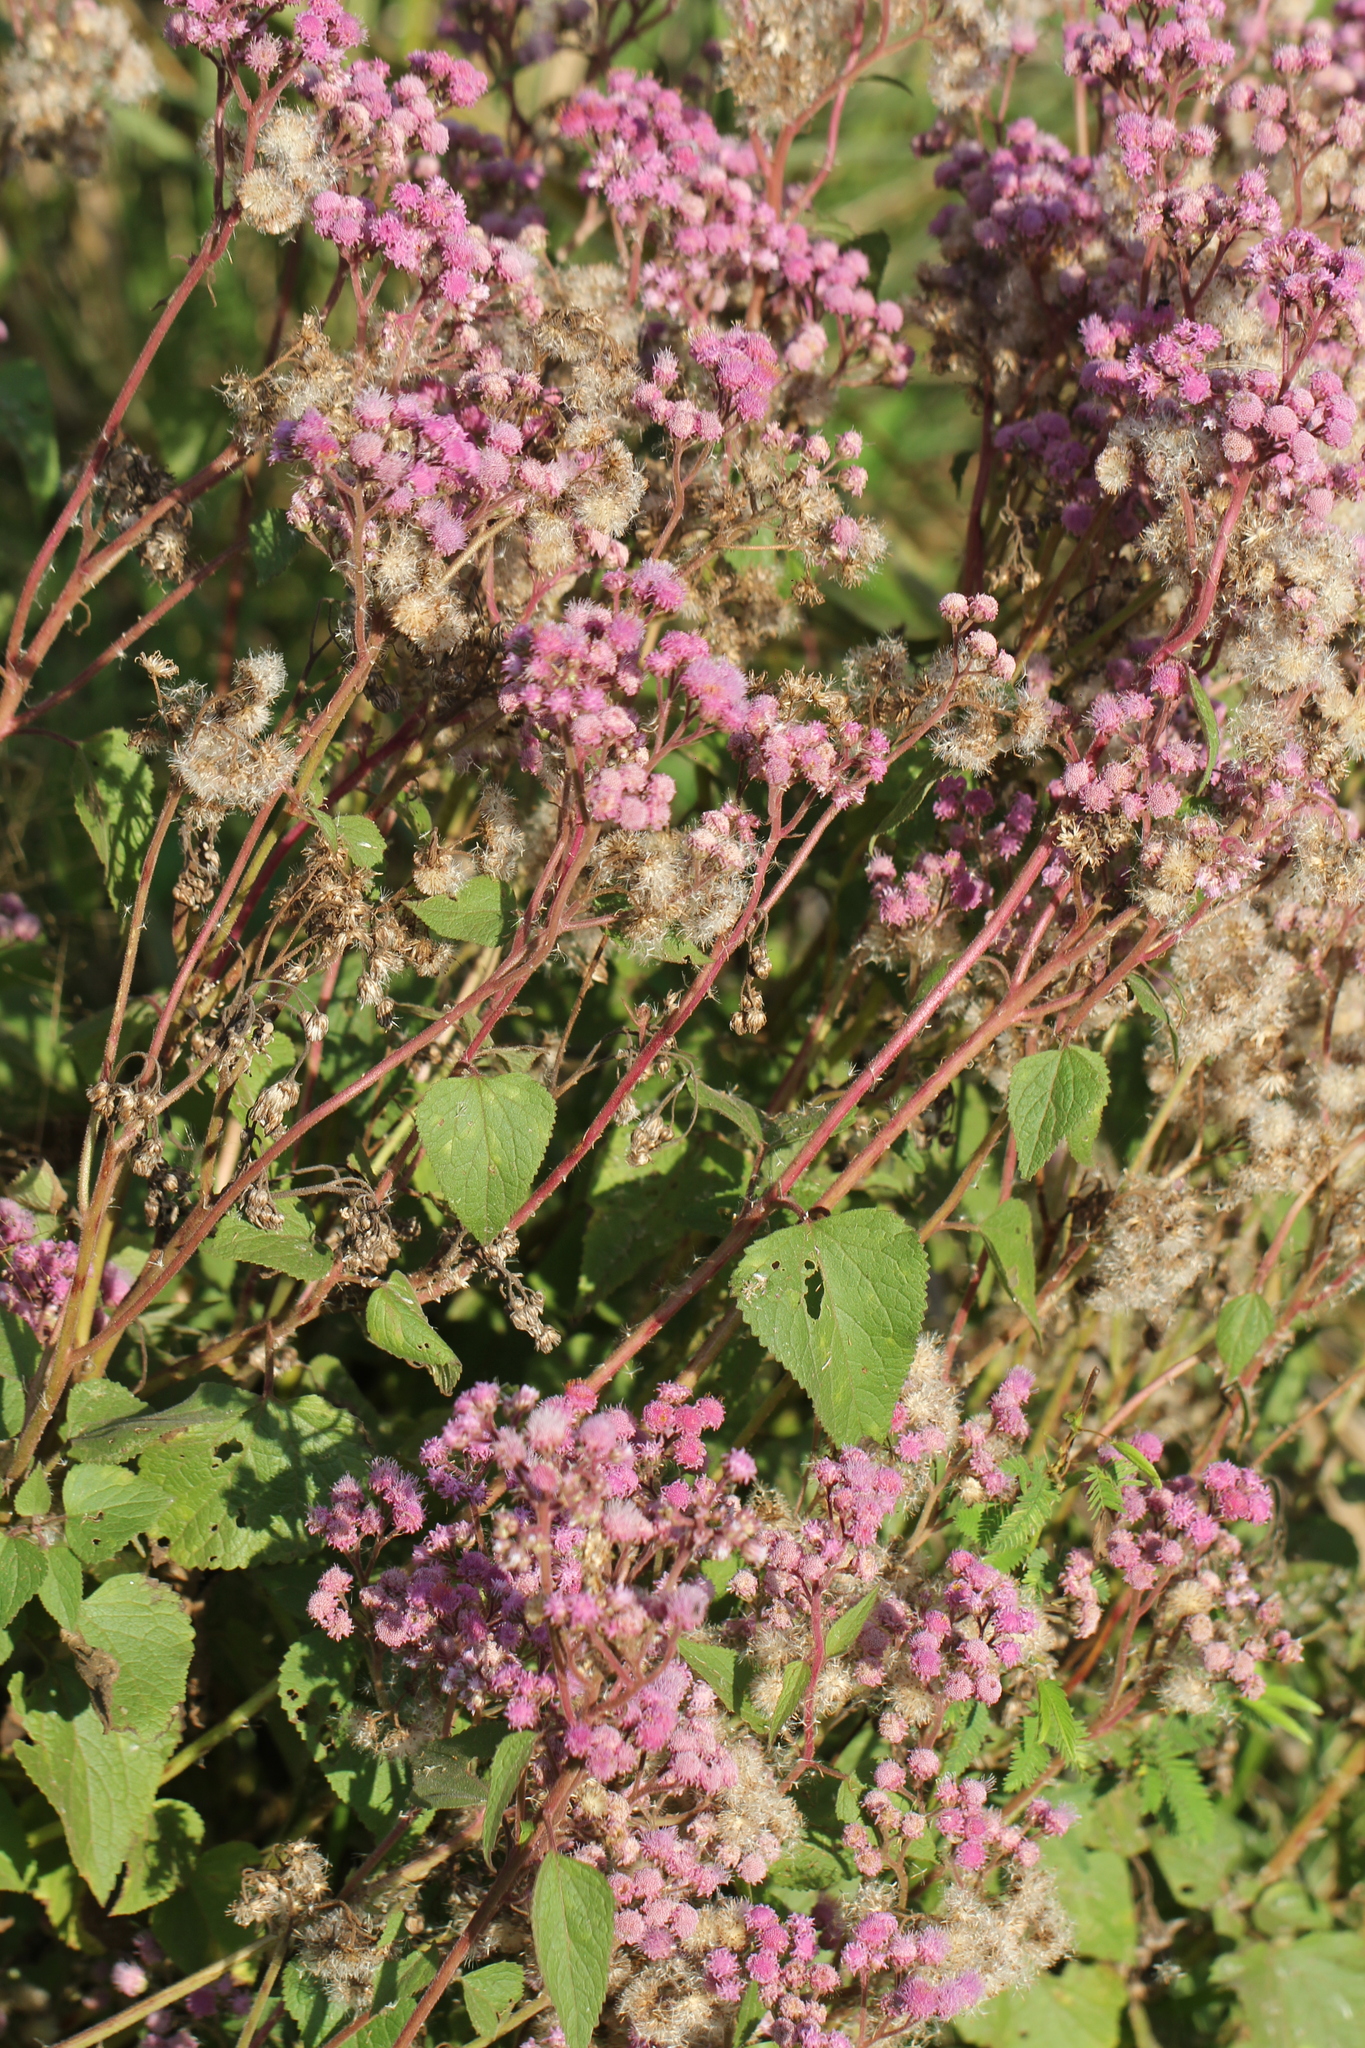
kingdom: Plantae
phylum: Tracheophyta
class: Magnoliopsida
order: Asterales
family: Asteraceae
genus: Urolepis
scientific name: Urolepis hecatantha
